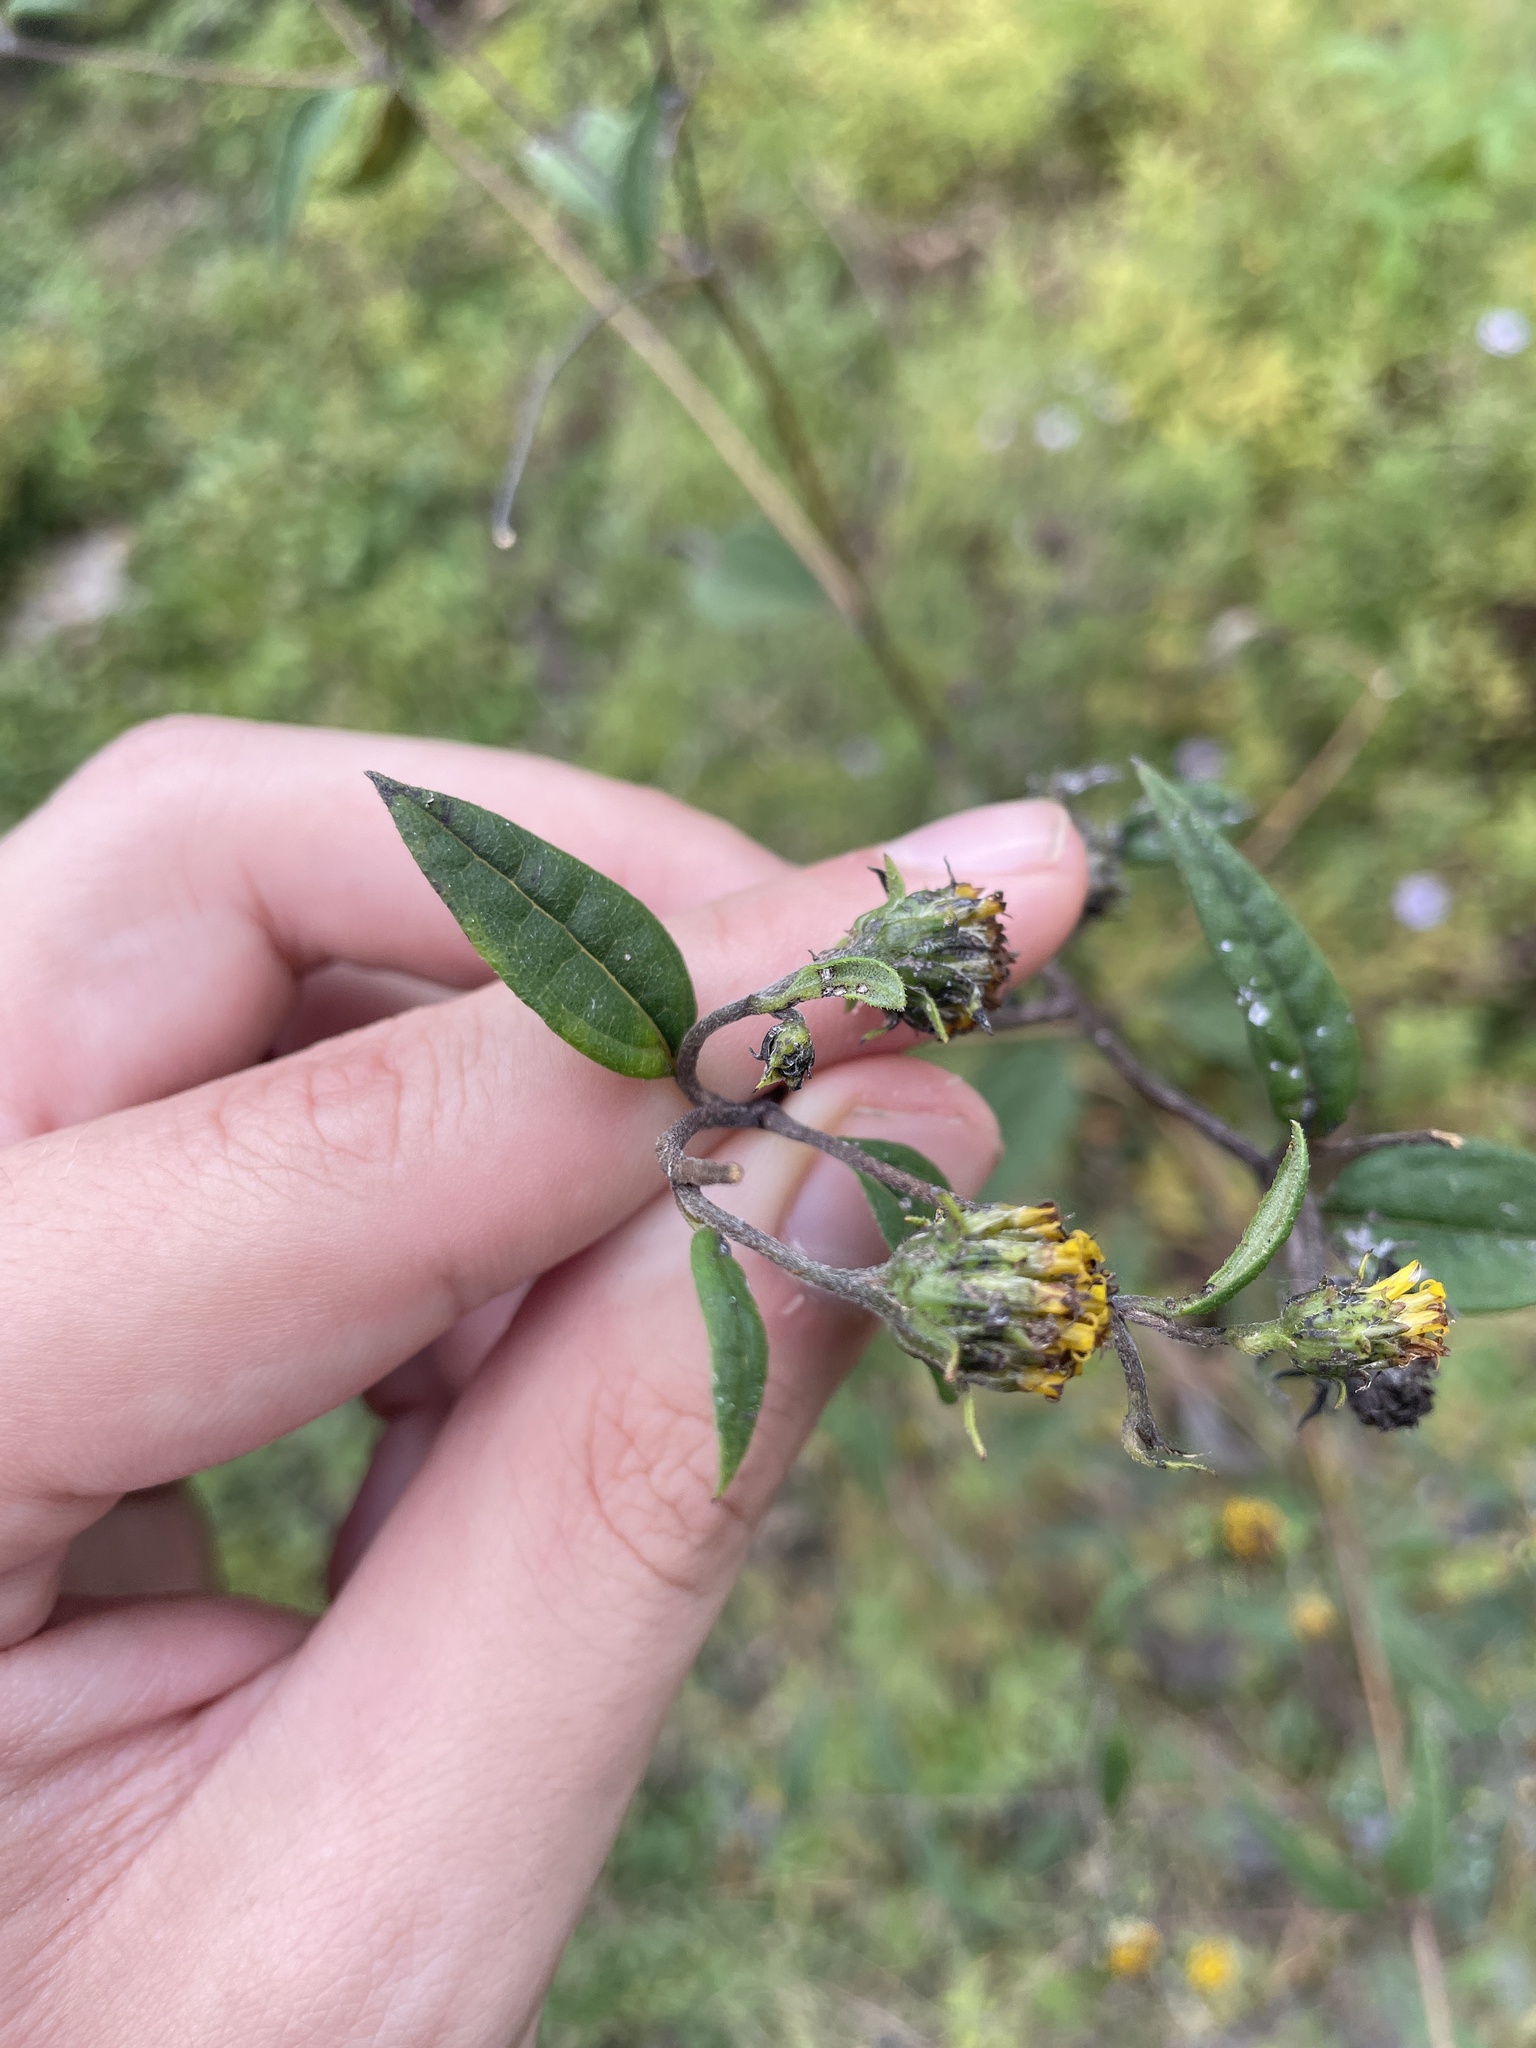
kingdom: Plantae
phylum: Tracheophyta
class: Magnoliopsida
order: Asterales
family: Asteraceae
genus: Helianthus
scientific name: Helianthus microcephalus
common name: Woodland sunflower
